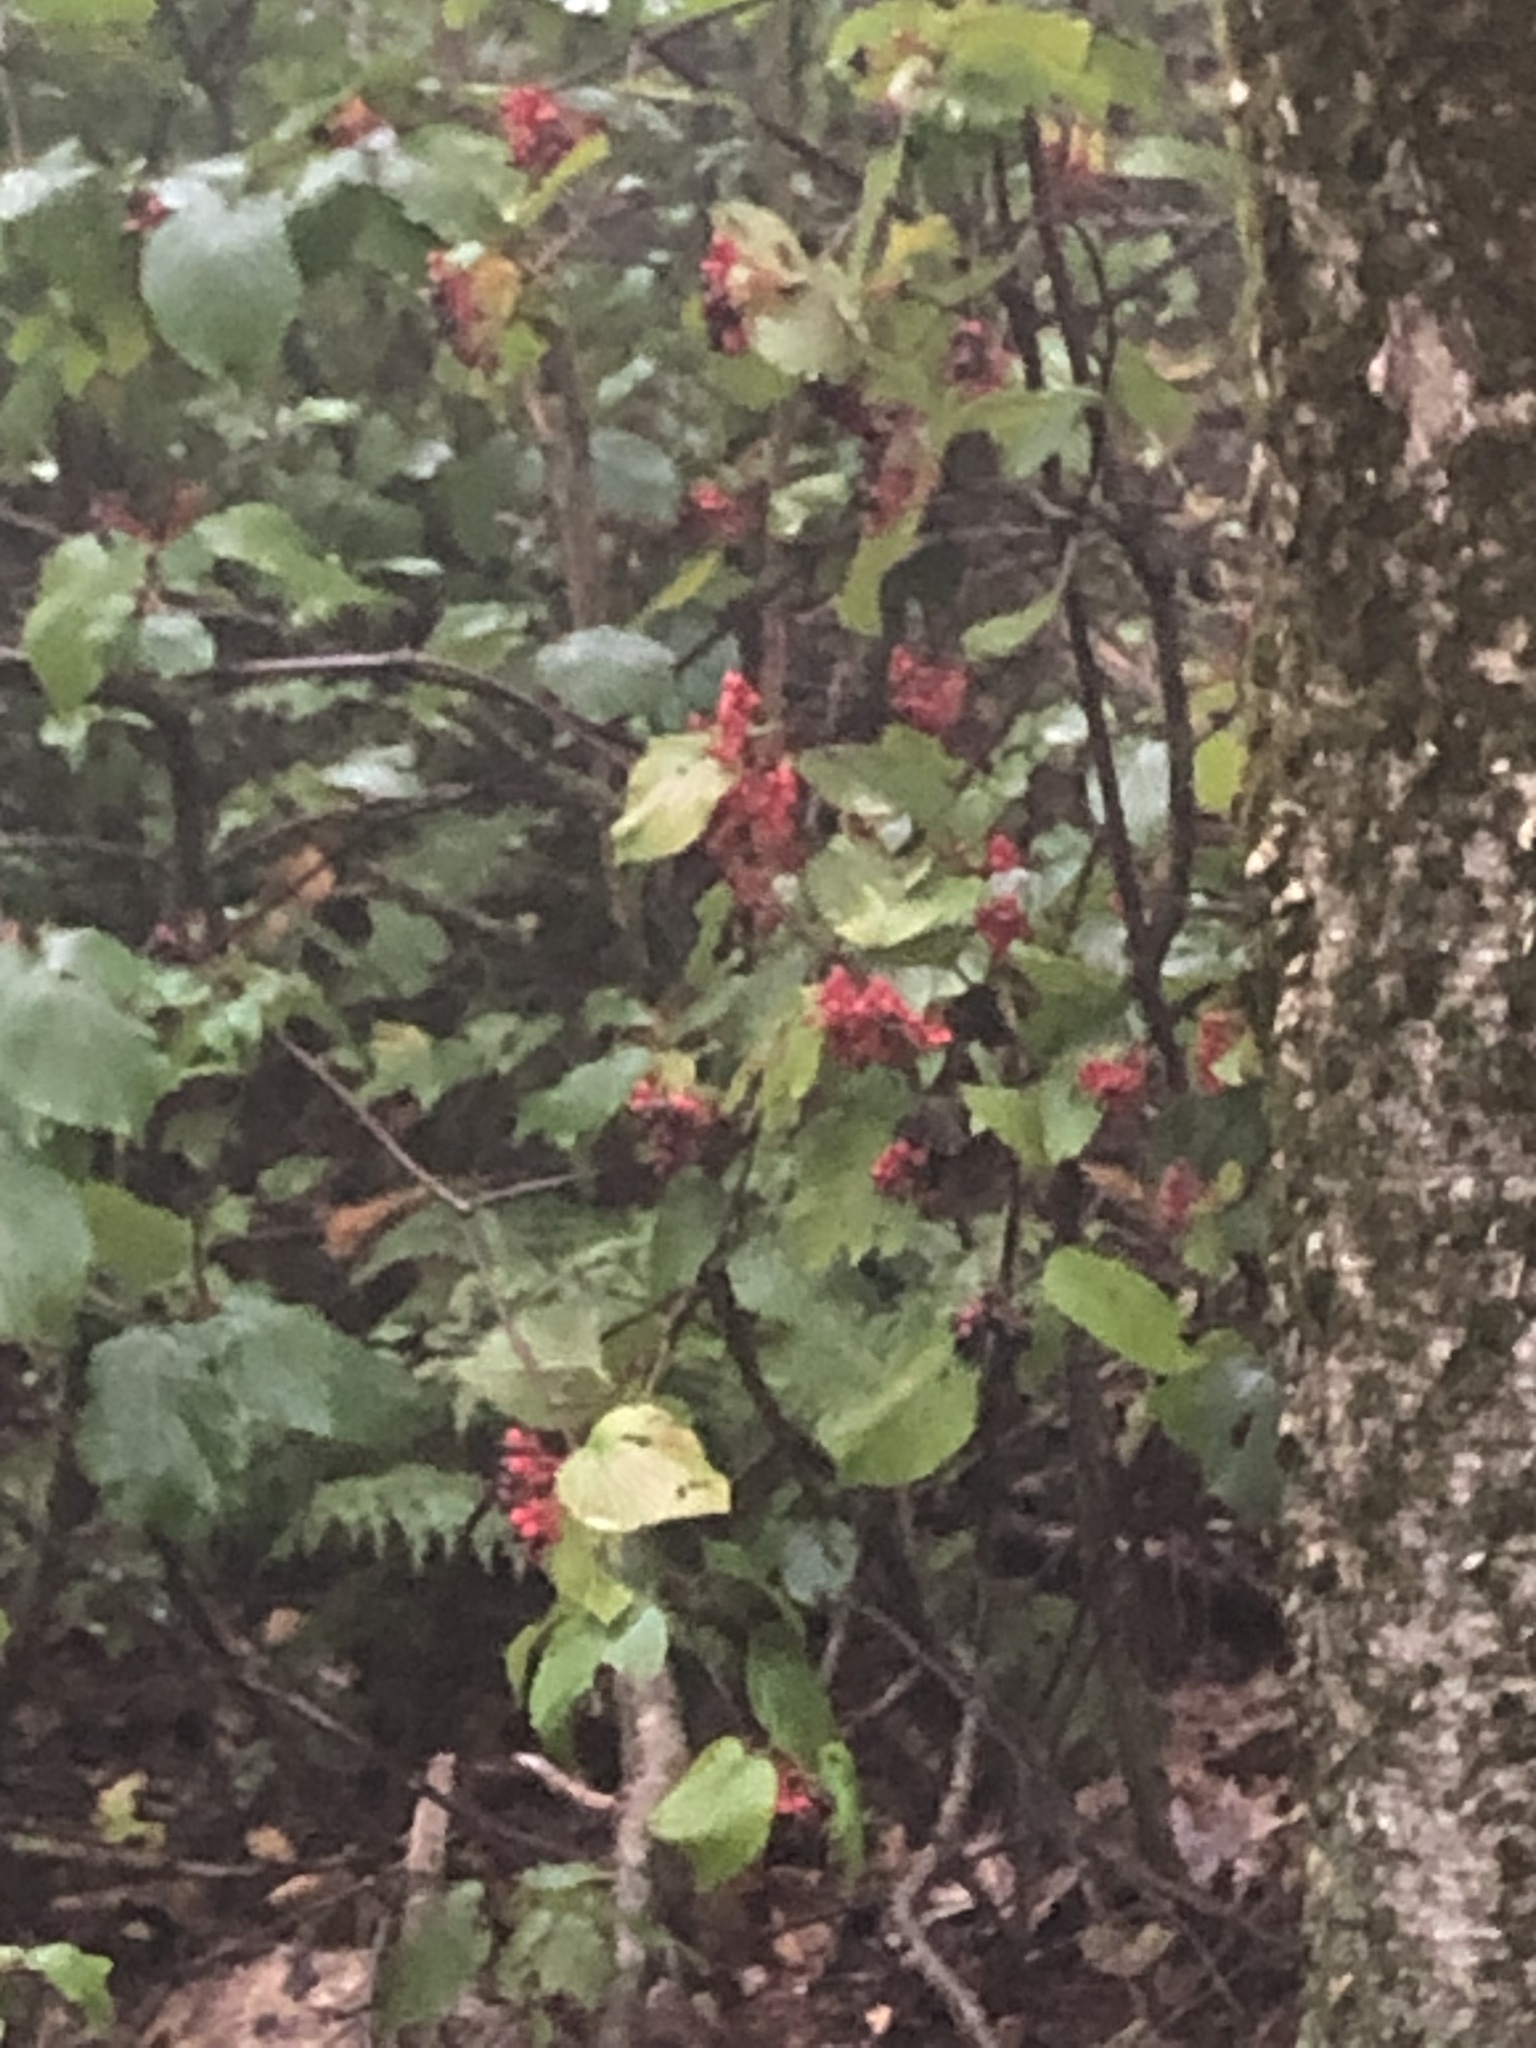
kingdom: Plantae
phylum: Tracheophyta
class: Magnoliopsida
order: Dipsacales
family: Viburnaceae
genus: Viburnum
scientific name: Viburnum lantanoides
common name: Hobblebush
